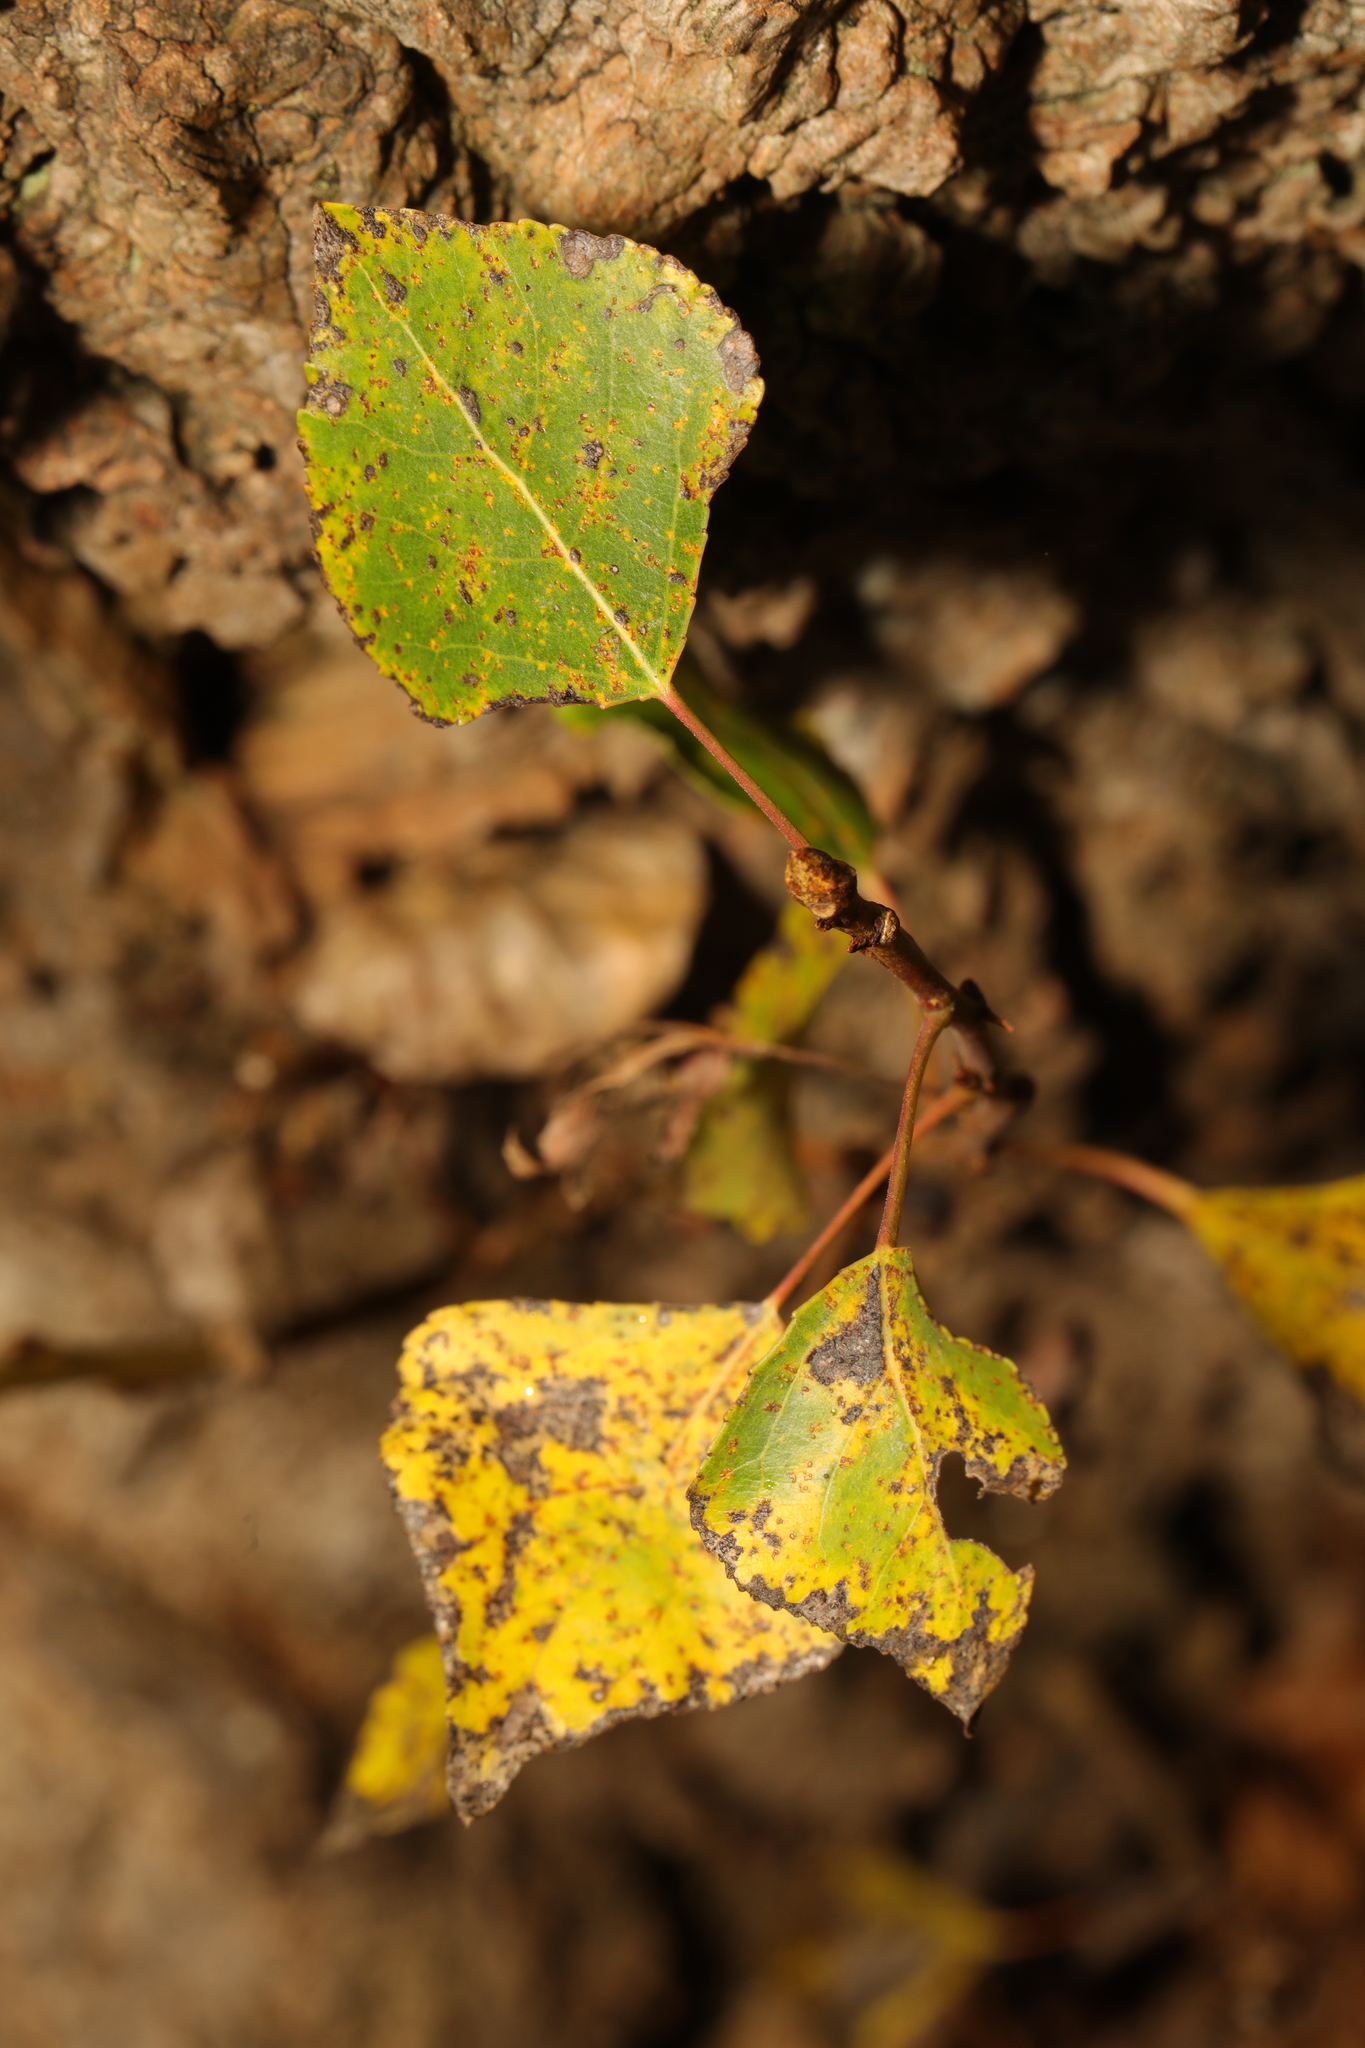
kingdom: Plantae
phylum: Tracheophyta
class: Magnoliopsida
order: Malpighiales
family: Salicaceae
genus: Populus
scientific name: Populus nigra
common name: Black poplar
